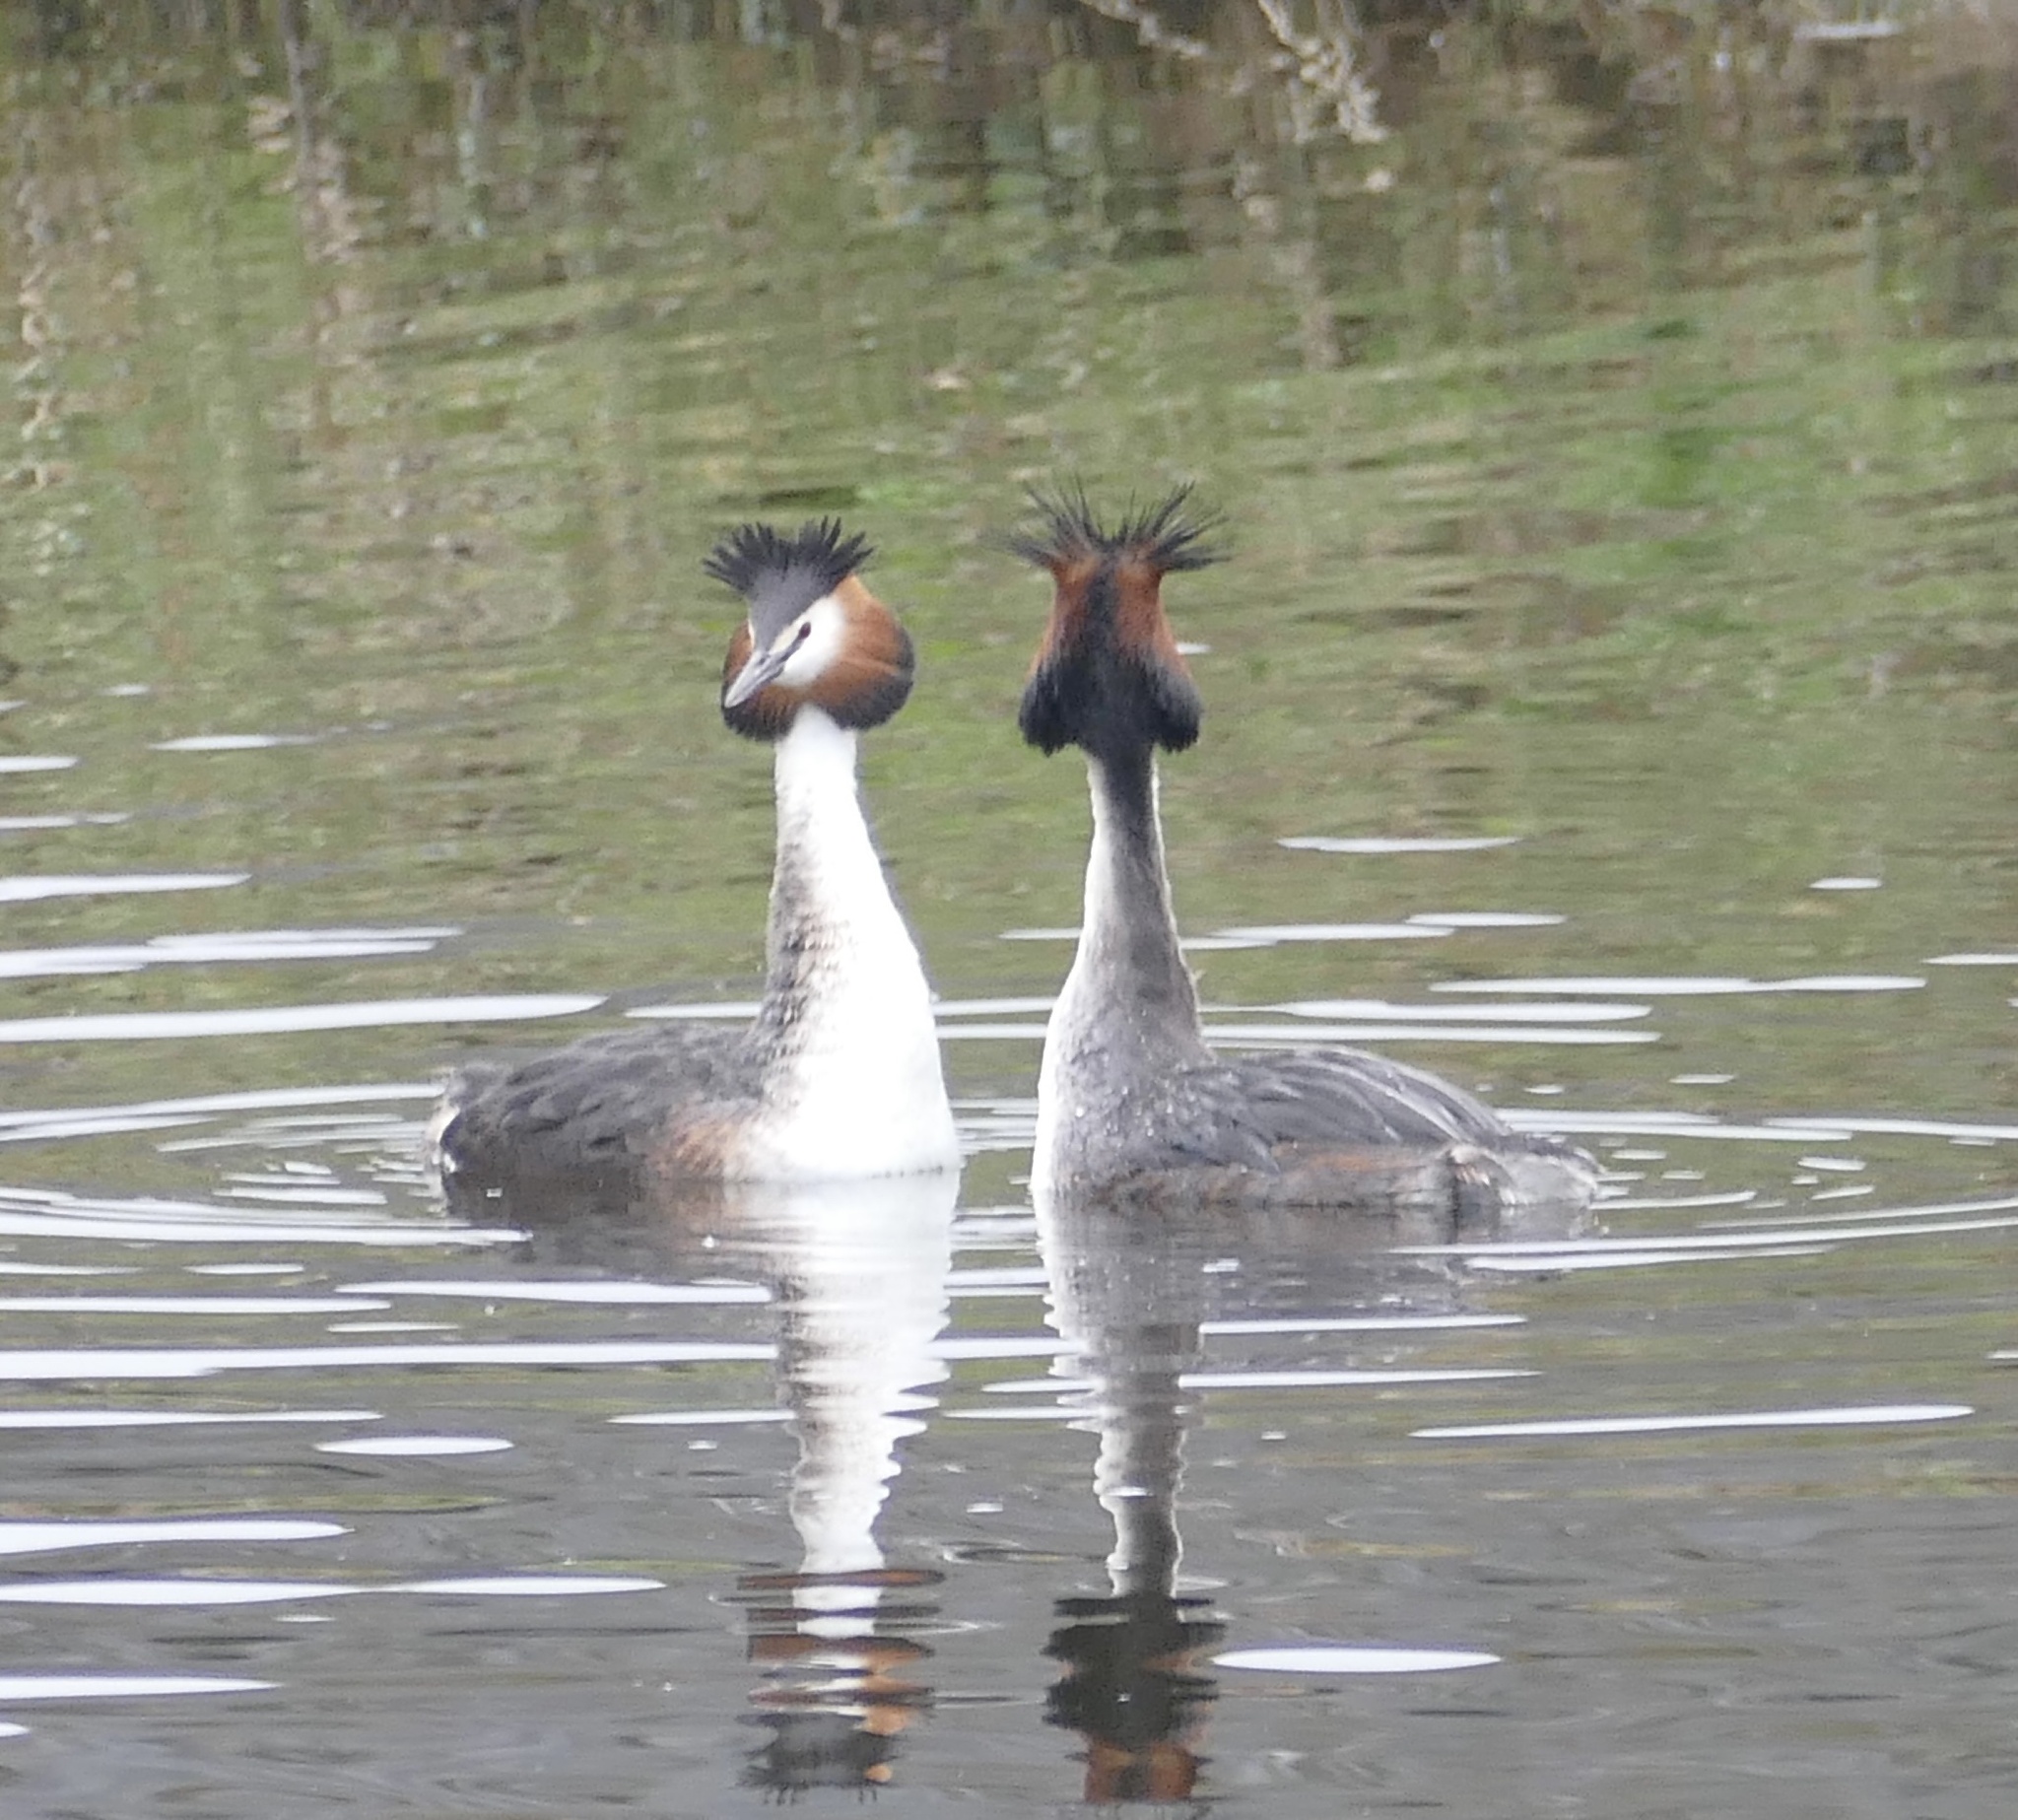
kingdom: Animalia
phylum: Chordata
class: Aves
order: Podicipediformes
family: Podicipedidae
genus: Podiceps
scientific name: Podiceps cristatus
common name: Great crested grebe
